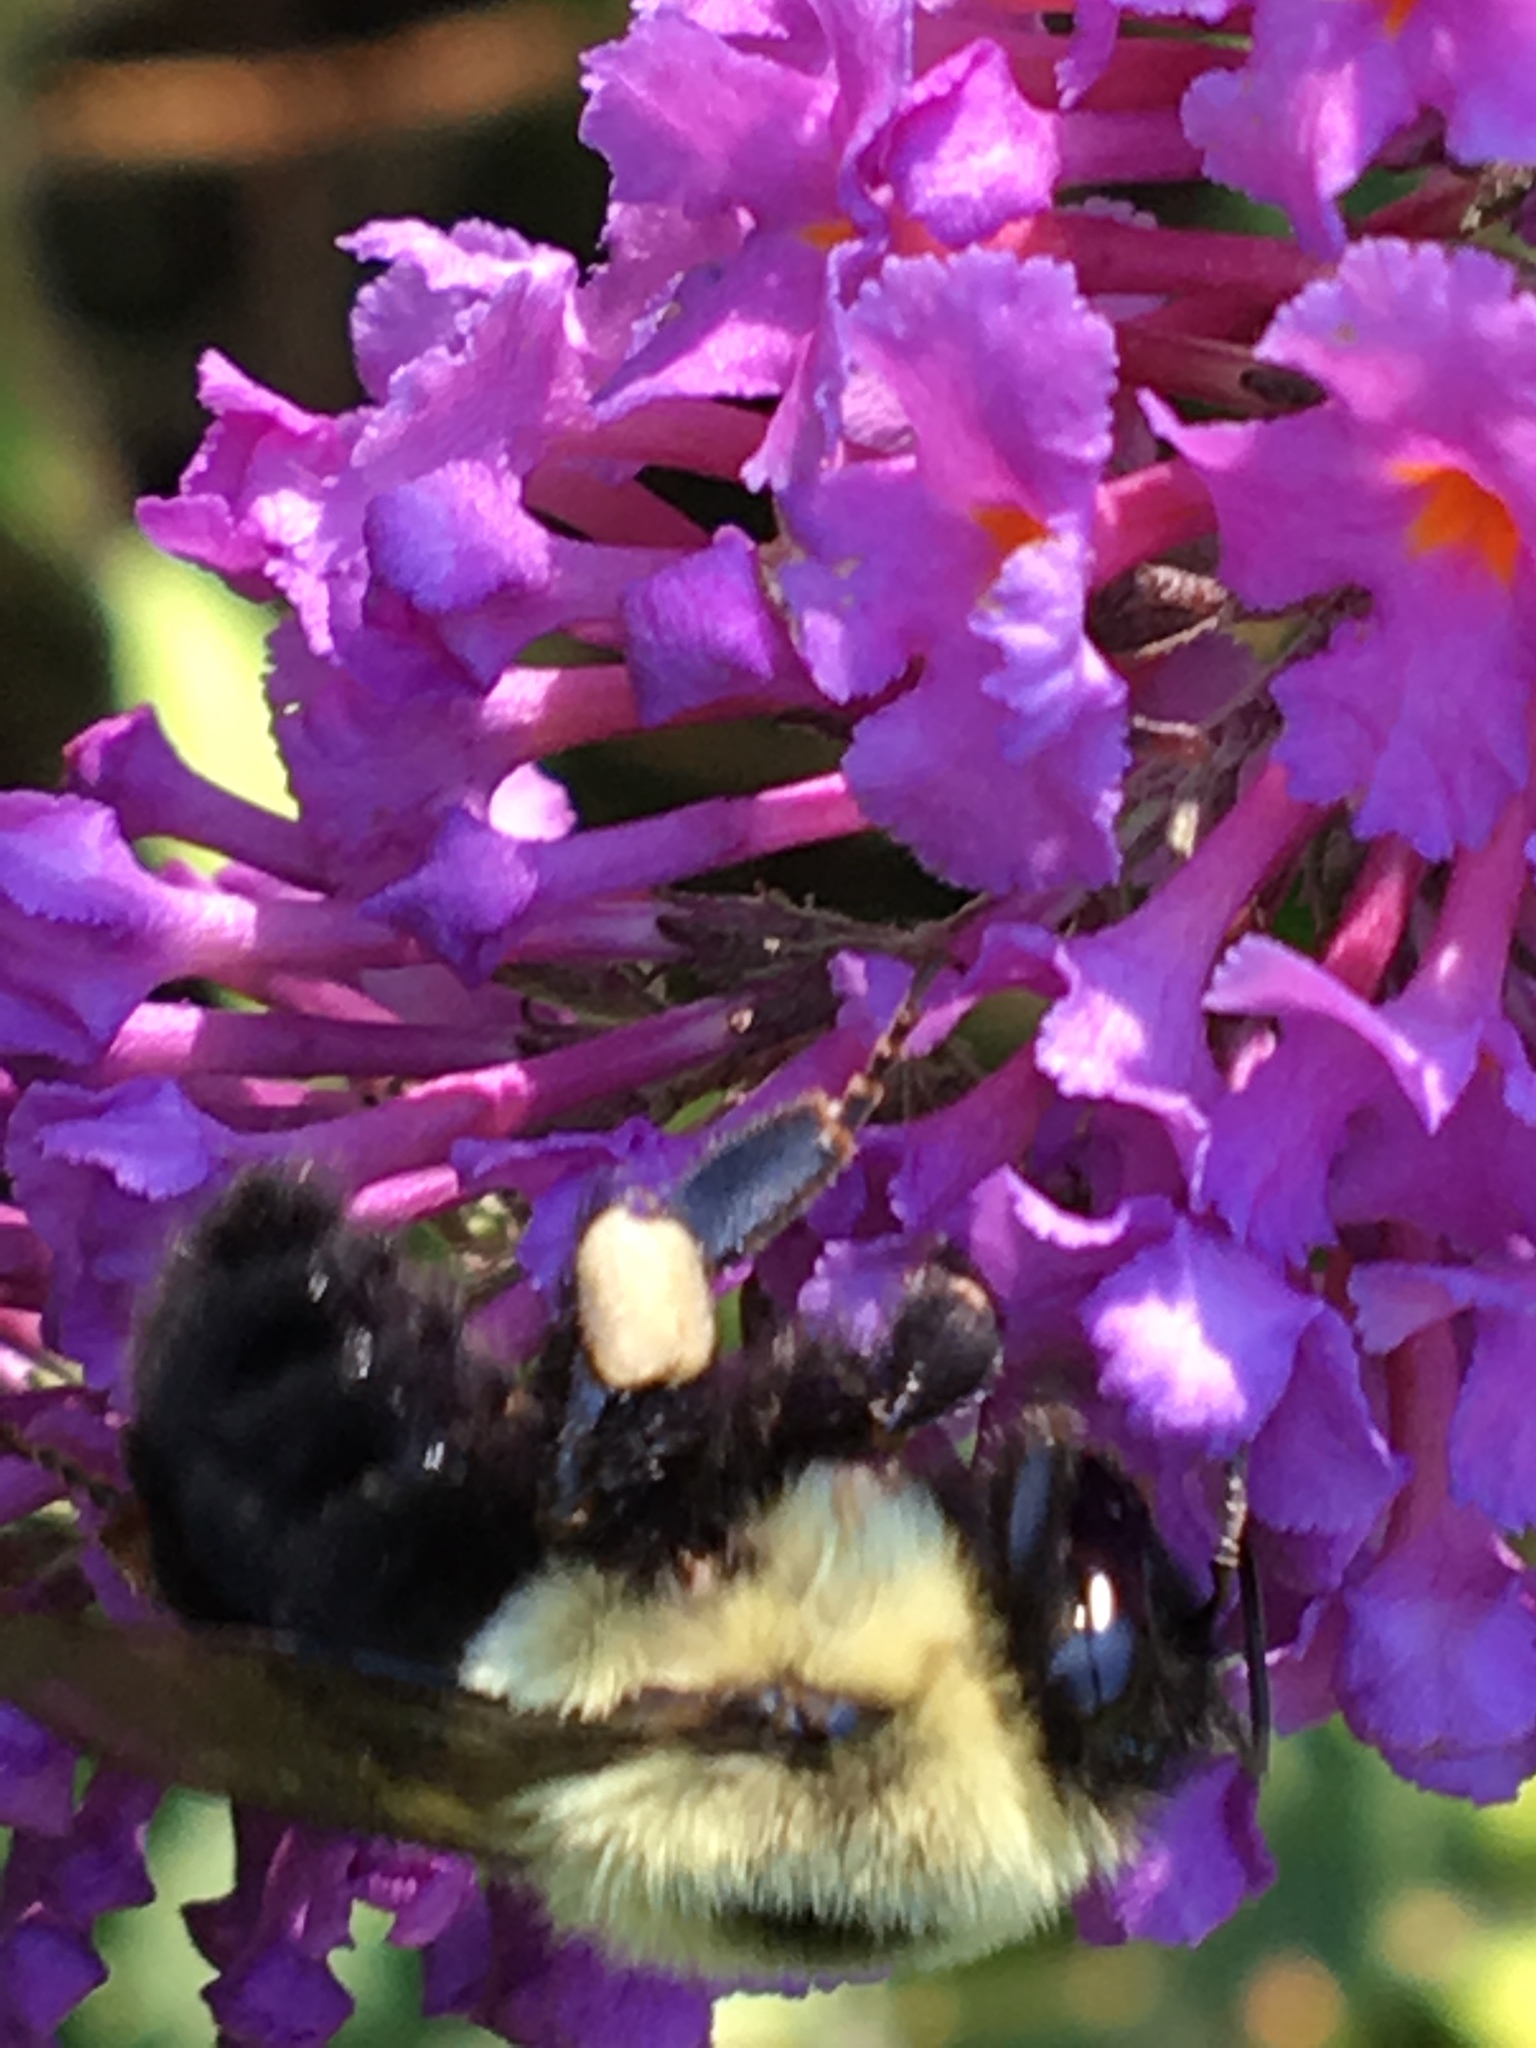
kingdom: Animalia
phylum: Arthropoda
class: Insecta
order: Hymenoptera
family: Apidae
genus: Bombus
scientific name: Bombus impatiens
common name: Common eastern bumble bee
